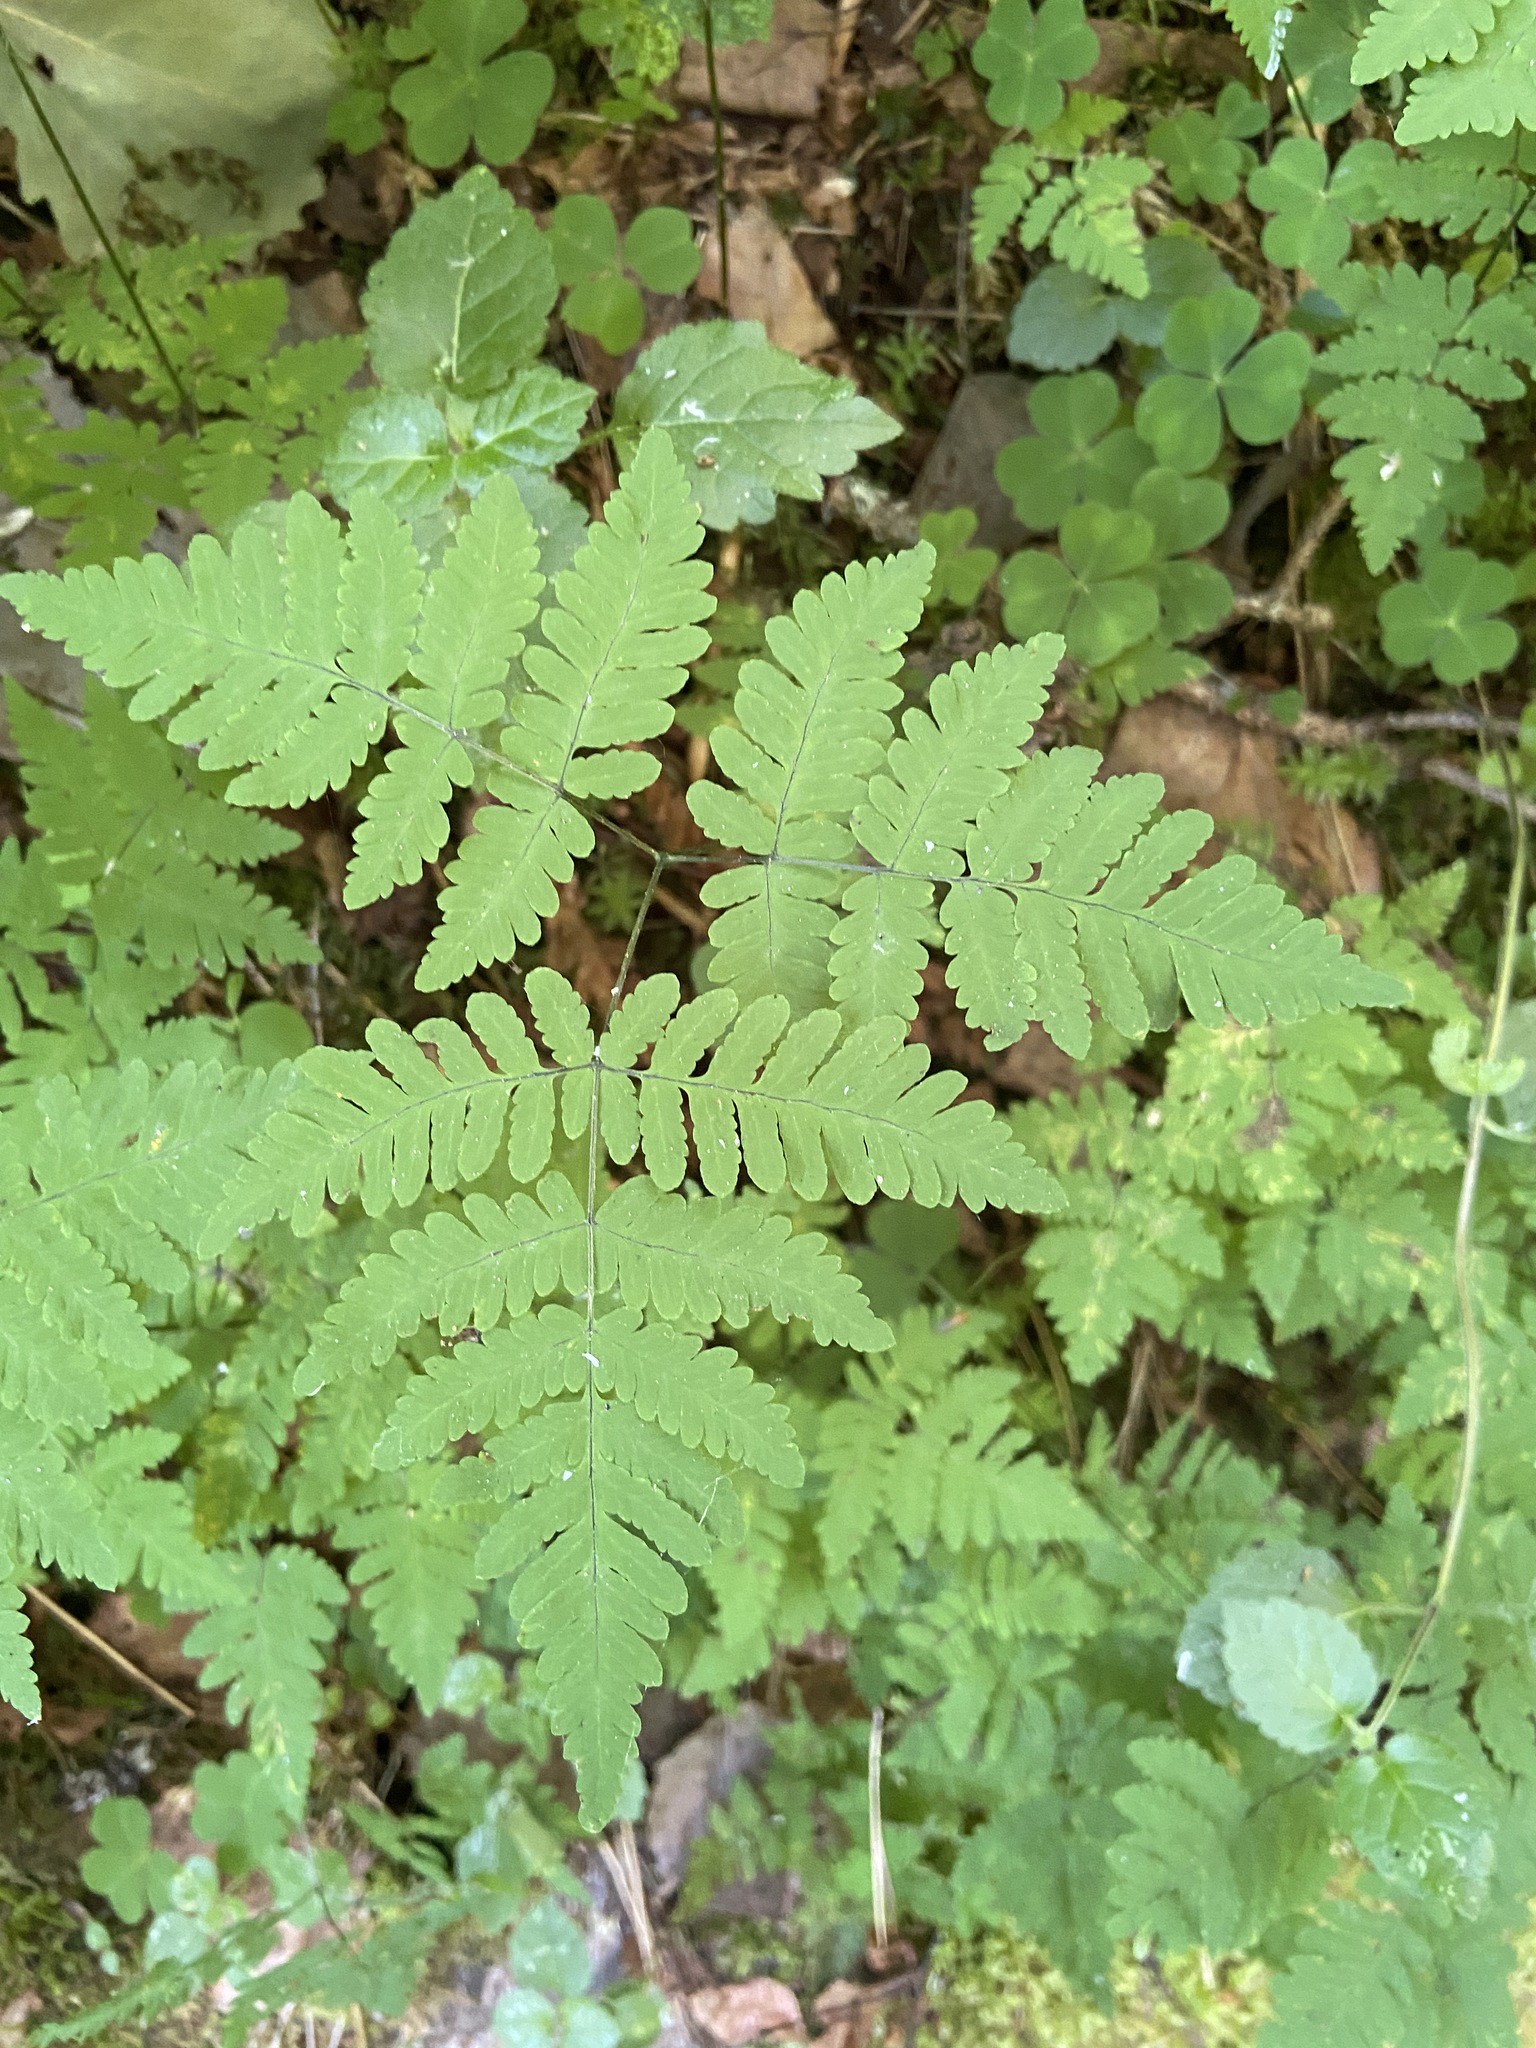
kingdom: Plantae
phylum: Tracheophyta
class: Polypodiopsida
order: Polypodiales
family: Cystopteridaceae
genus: Gymnocarpium
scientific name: Gymnocarpium dryopteris
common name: Oak fern
